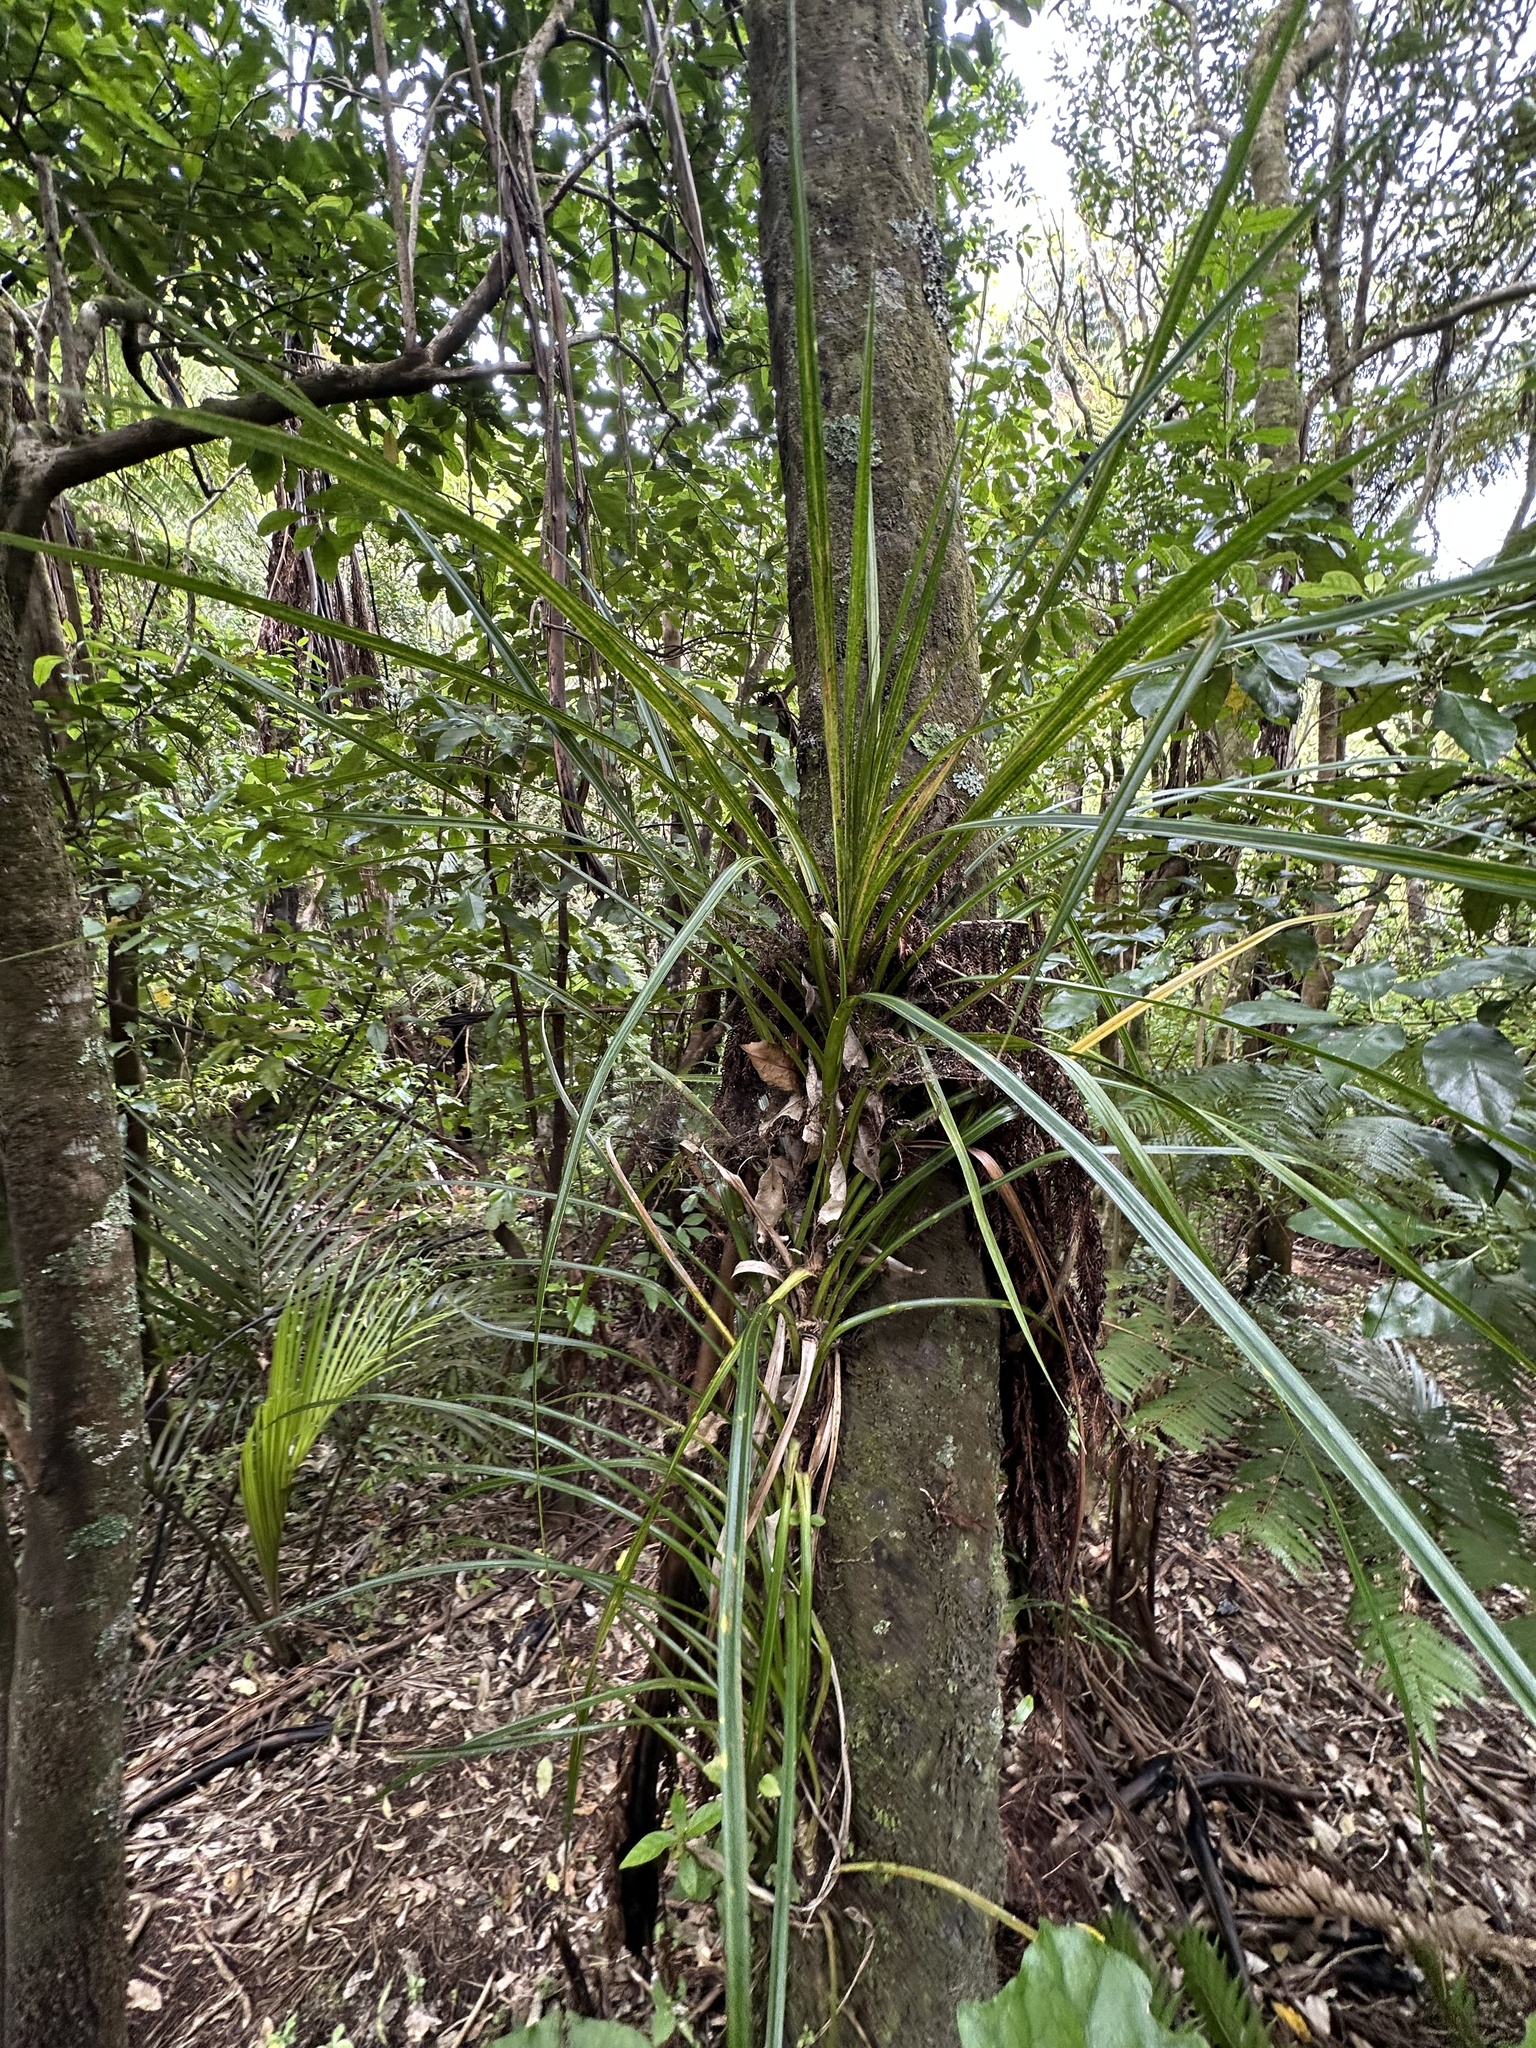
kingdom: Plantae
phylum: Tracheophyta
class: Liliopsida
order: Pandanales
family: Pandanaceae
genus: Freycinetia
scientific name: Freycinetia banksii
